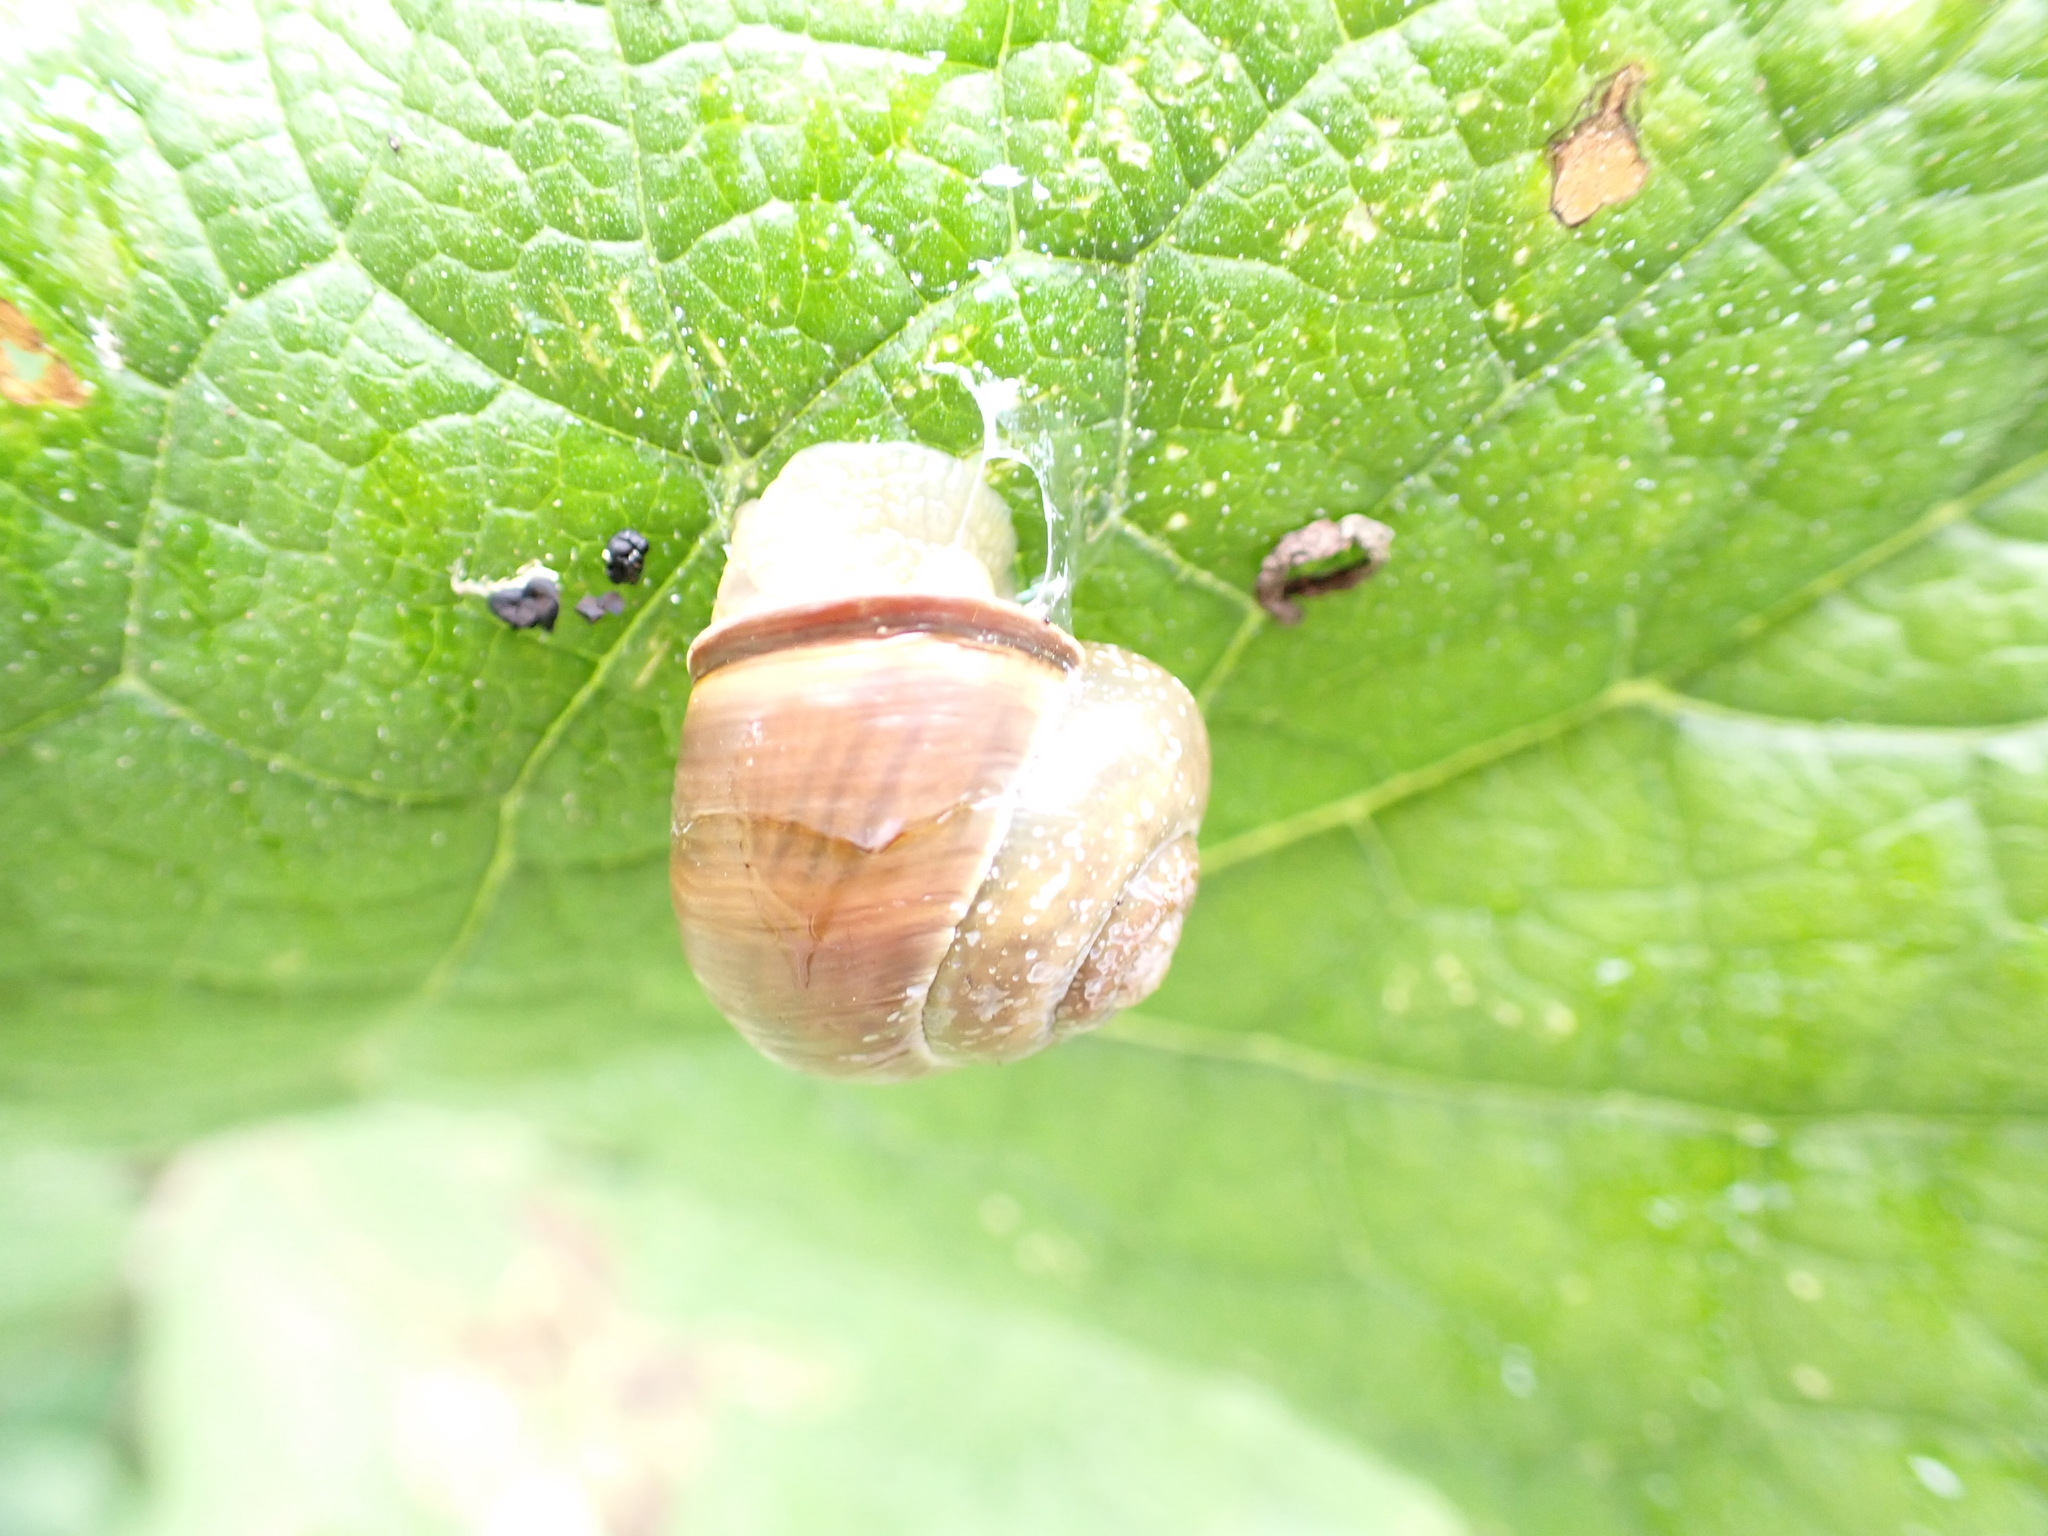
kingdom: Animalia
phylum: Mollusca
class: Gastropoda
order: Stylommatophora
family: Helicidae
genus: Cepaea
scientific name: Cepaea nemoralis
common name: Grovesnail
